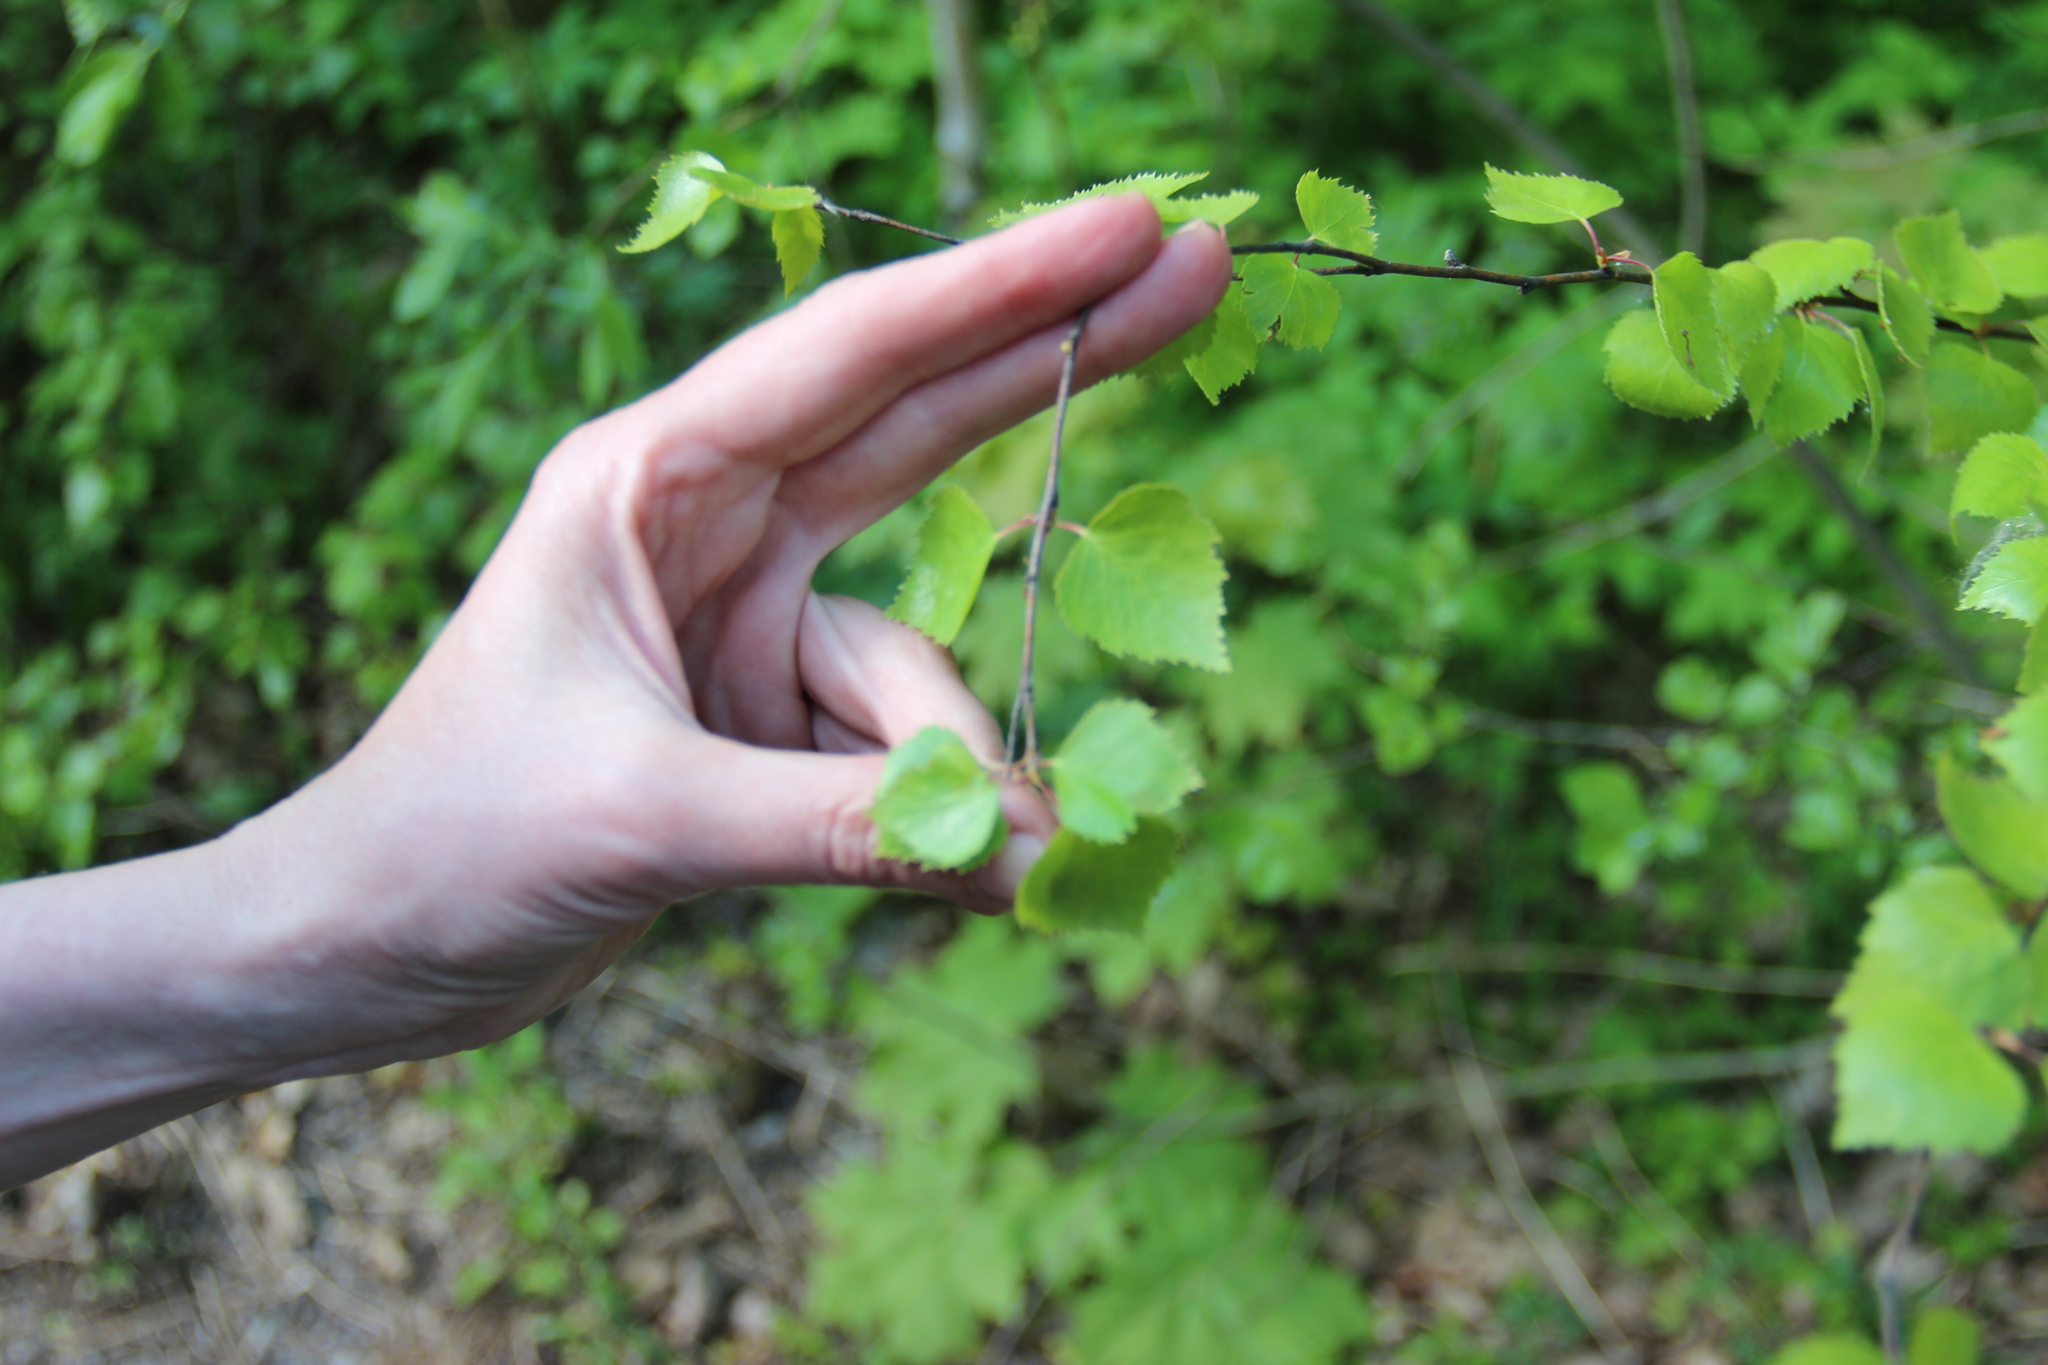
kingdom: Plantae
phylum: Tracheophyta
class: Magnoliopsida
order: Fagales
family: Betulaceae
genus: Betula
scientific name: Betula pendula
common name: Silver birch
